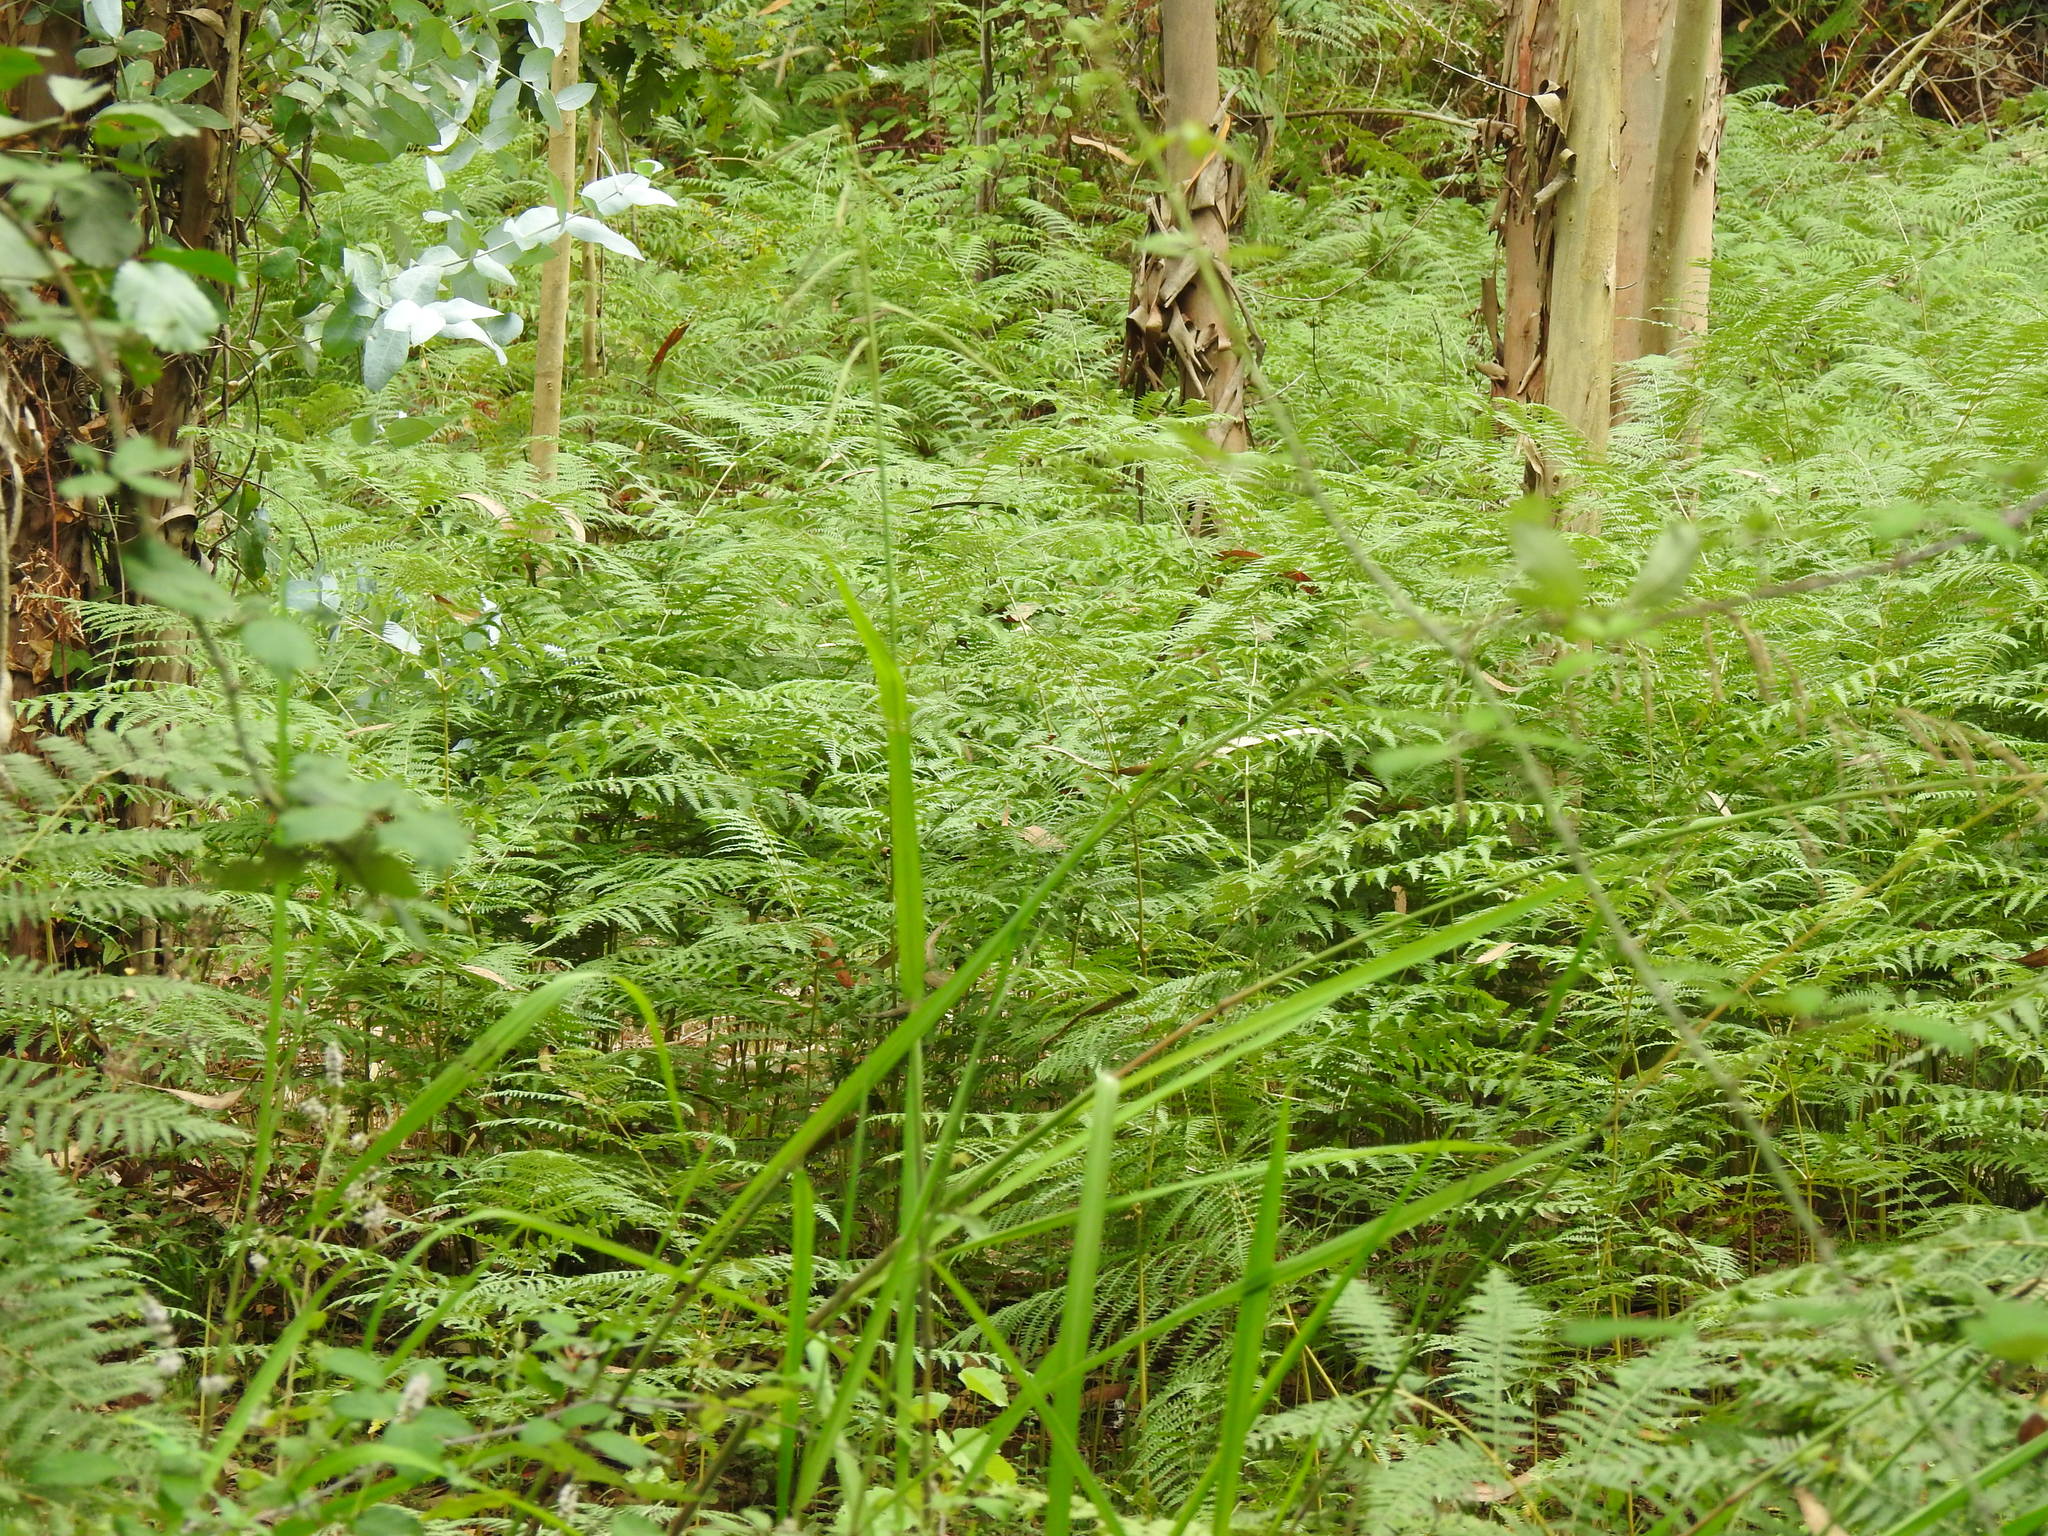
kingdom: Plantae
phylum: Tracheophyta
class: Polypodiopsida
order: Polypodiales
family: Dennstaedtiaceae
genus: Pteridium
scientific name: Pteridium aquilinum
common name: Bracken
